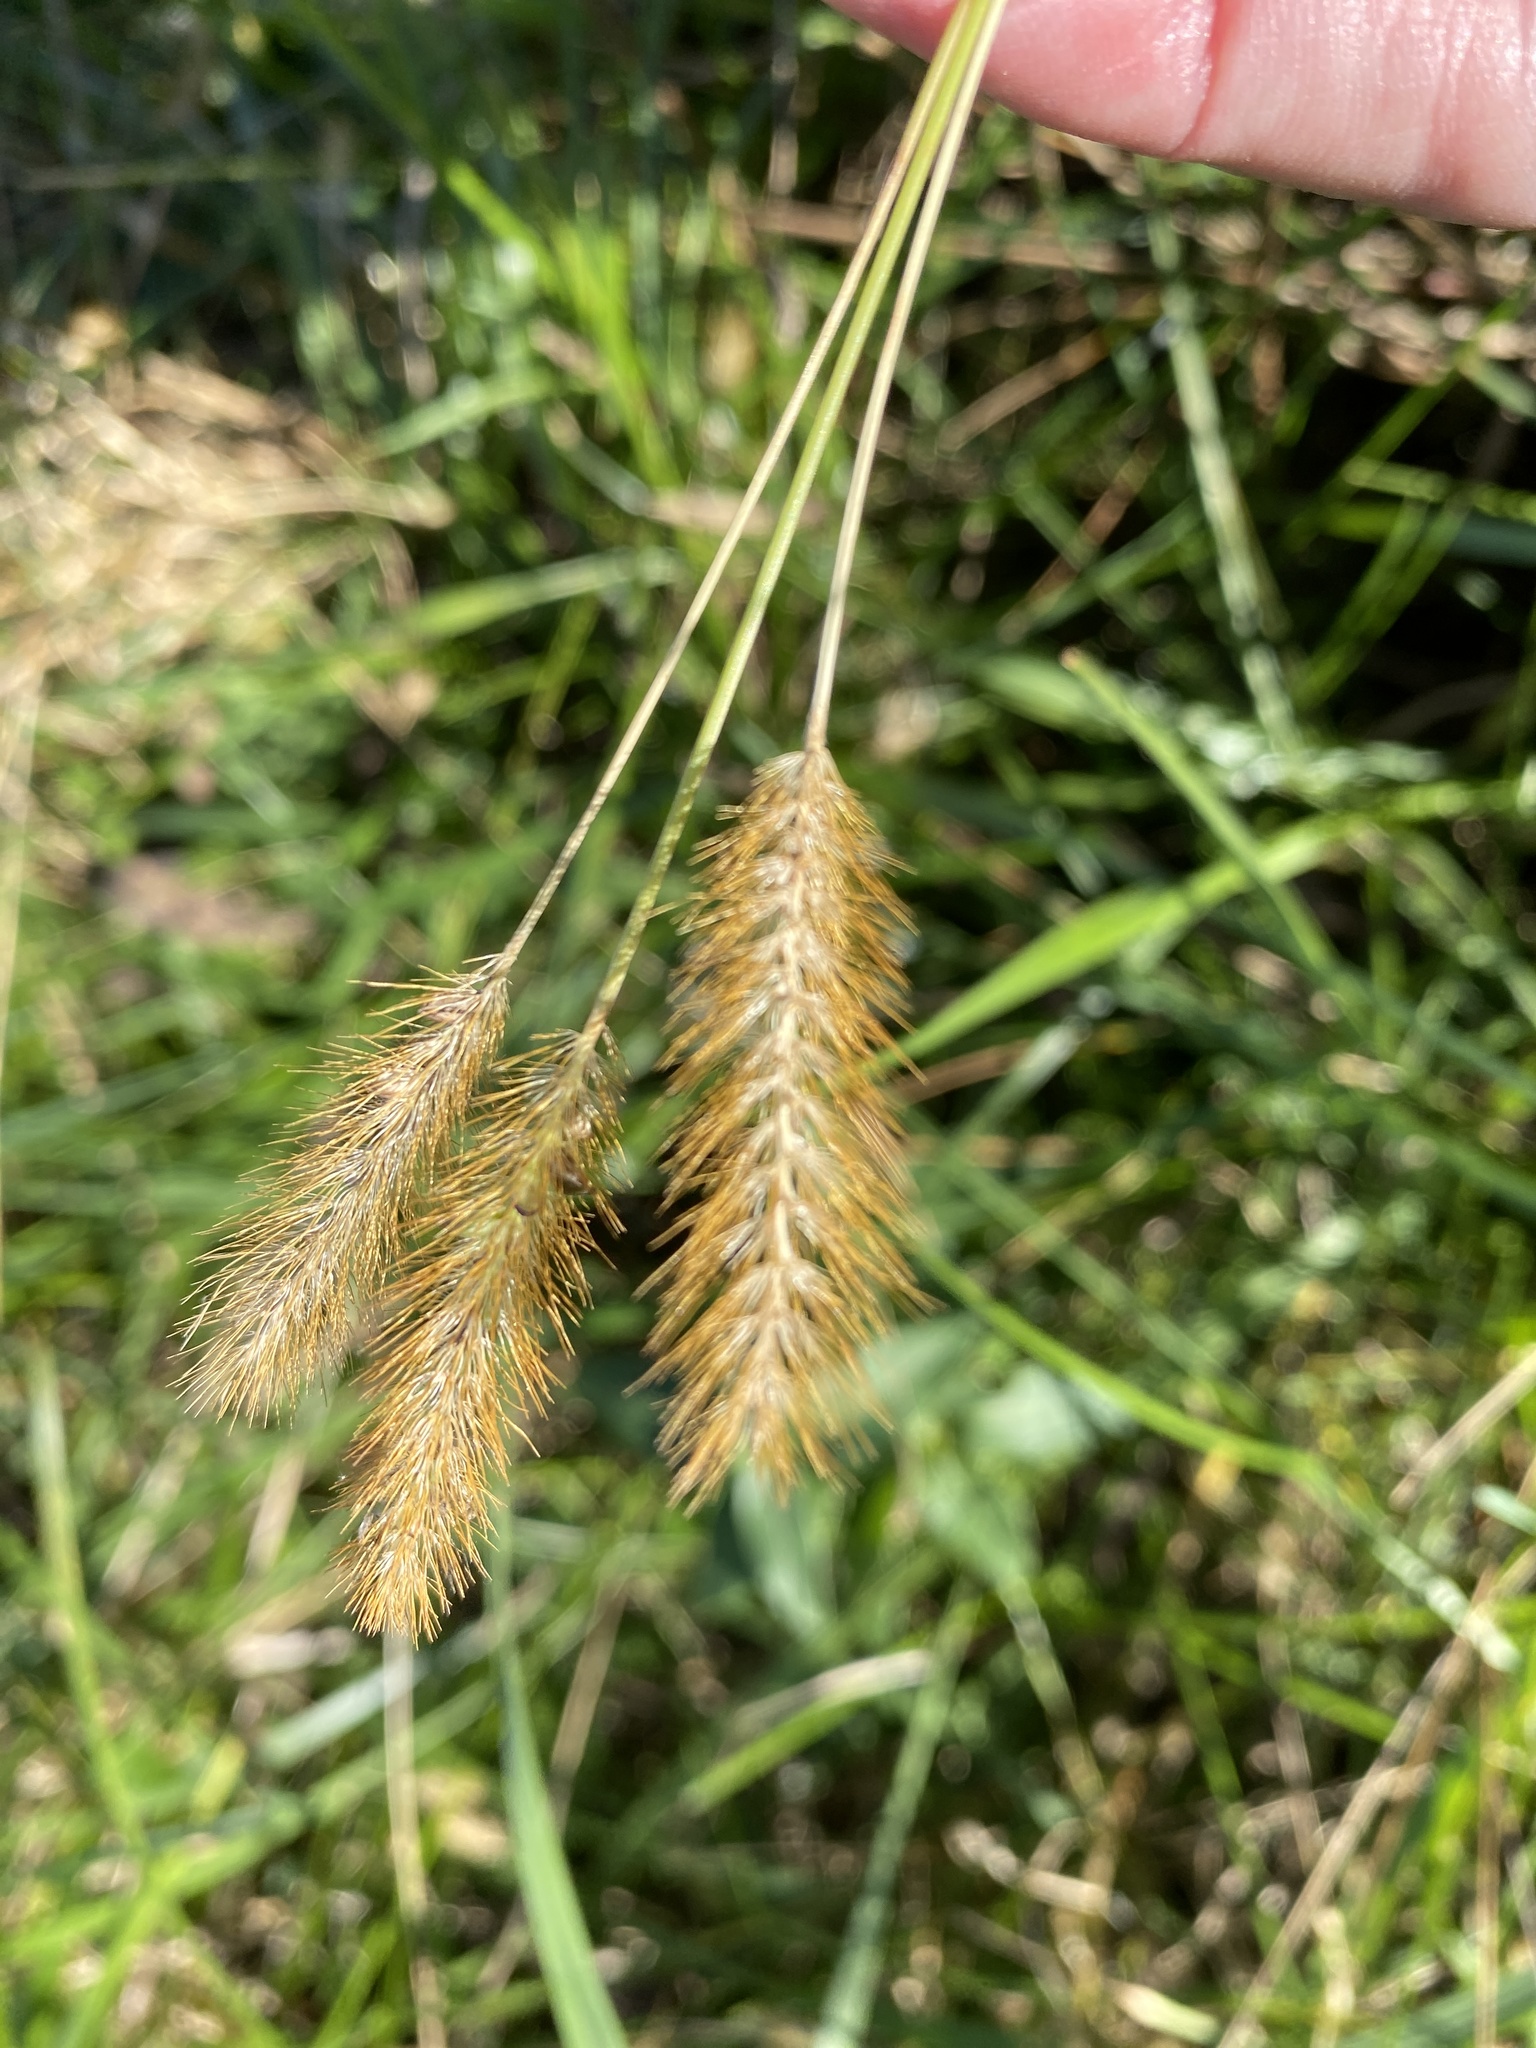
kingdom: Plantae
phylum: Tracheophyta
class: Liliopsida
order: Poales
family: Poaceae
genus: Setaria
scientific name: Setaria pumila
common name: Yellow bristle-grass
